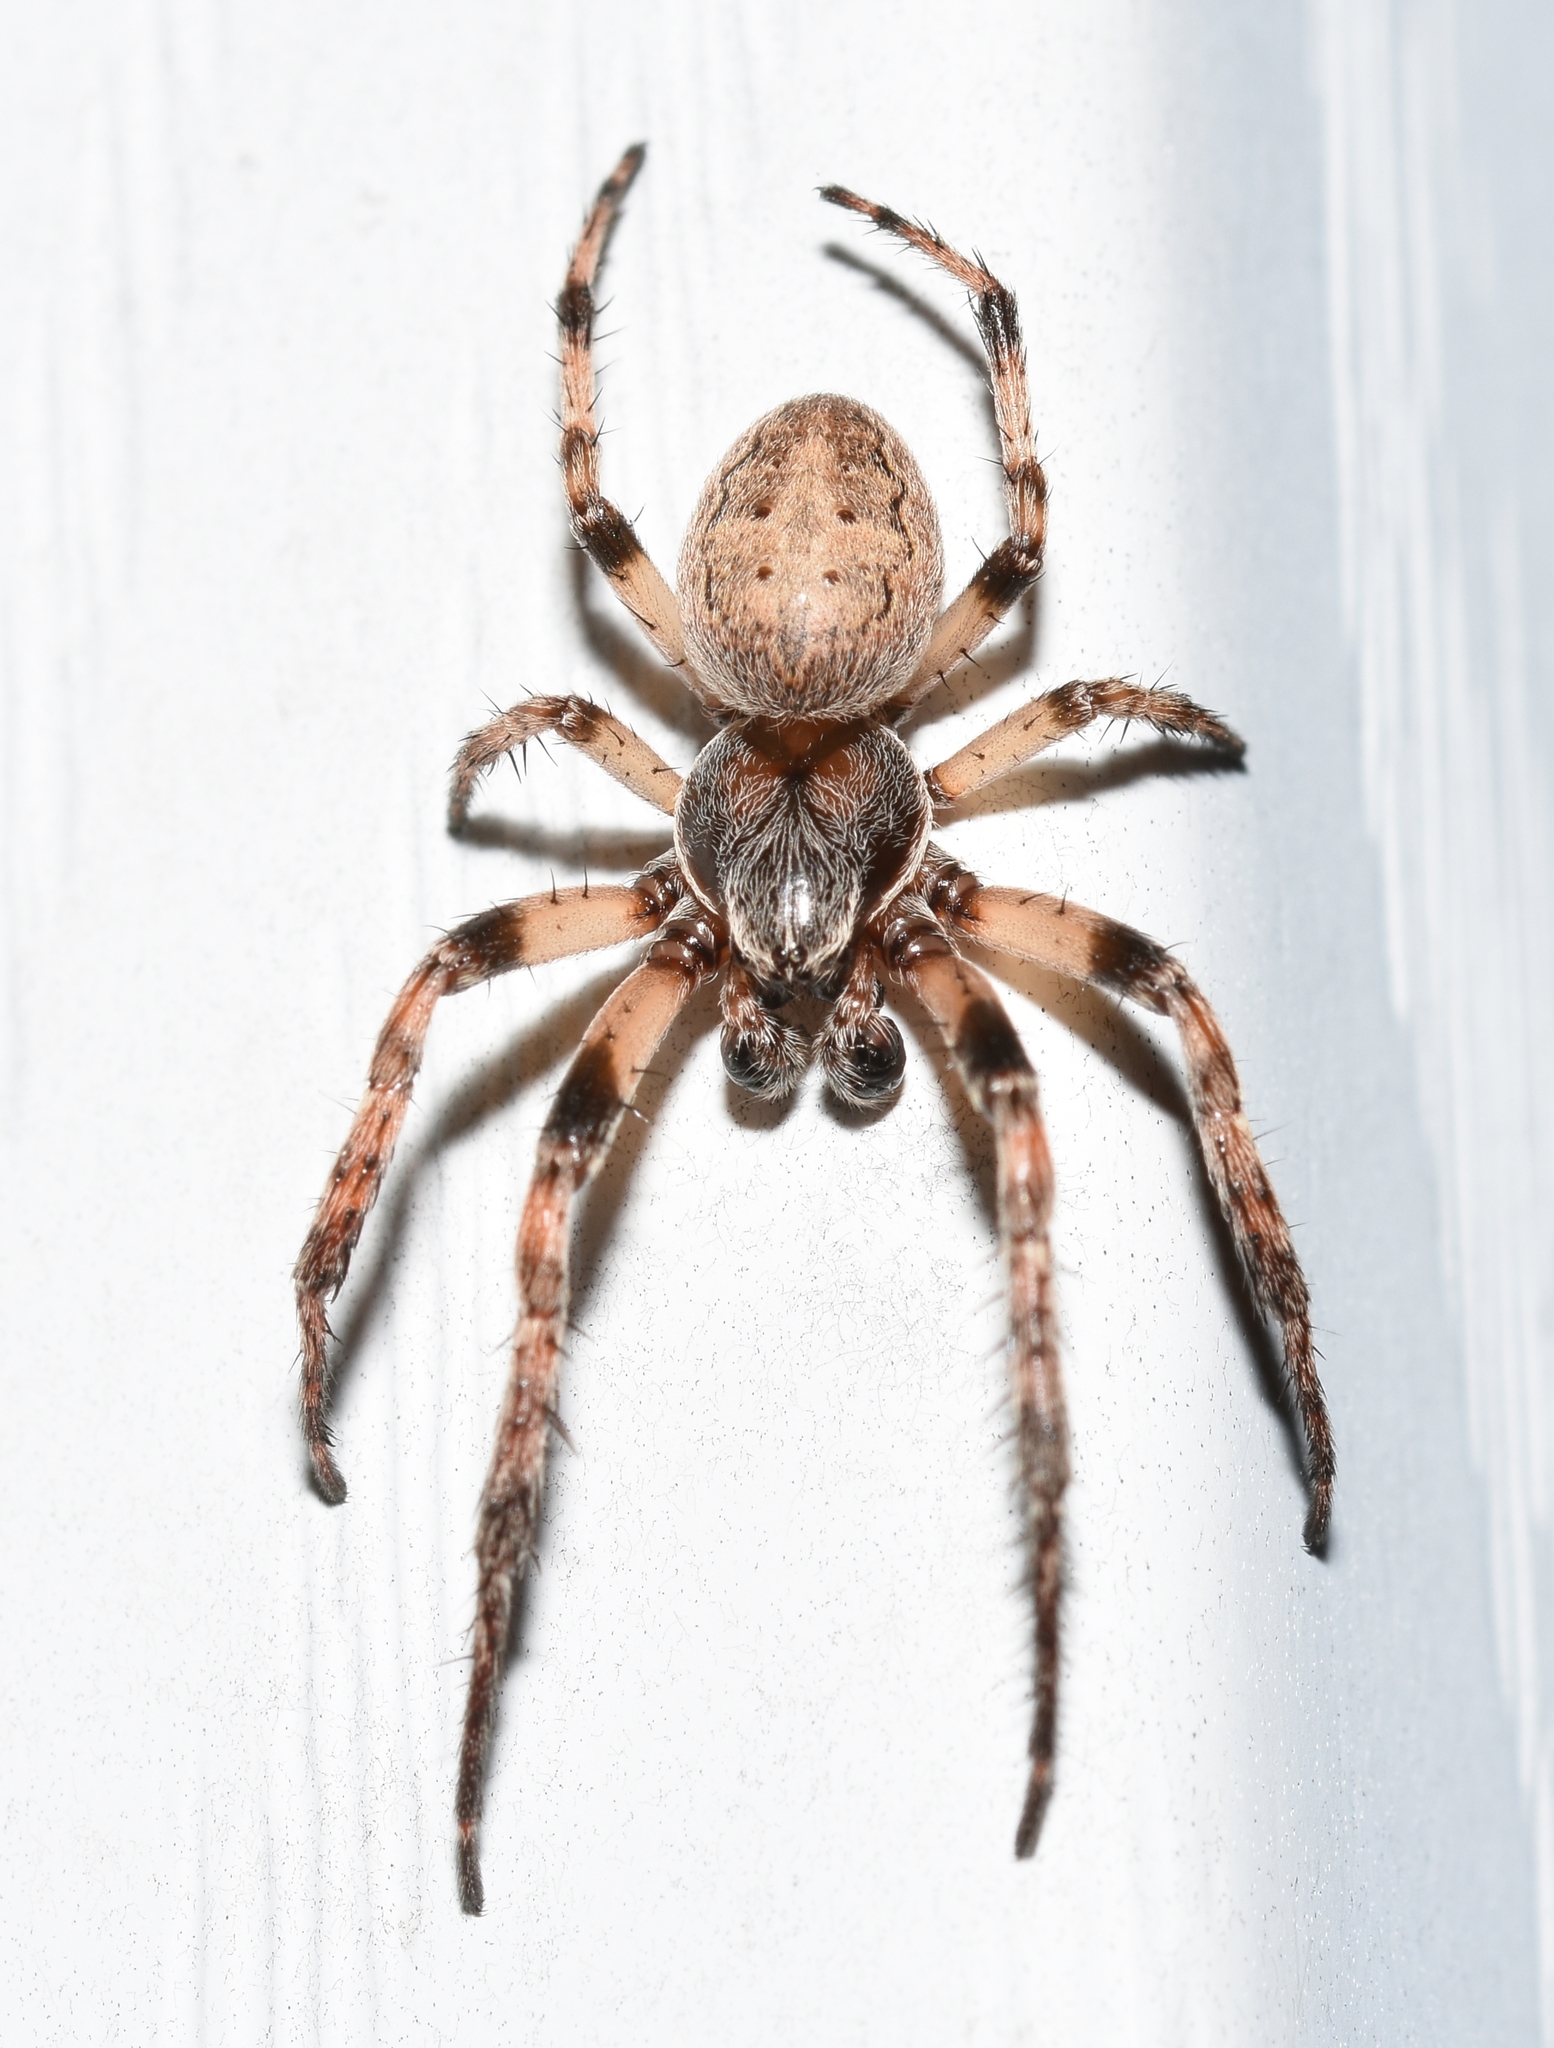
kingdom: Animalia
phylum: Arthropoda
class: Arachnida
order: Araneae
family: Araneidae
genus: Larinioides
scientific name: Larinioides cornutus
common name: Furrow orbweaver
